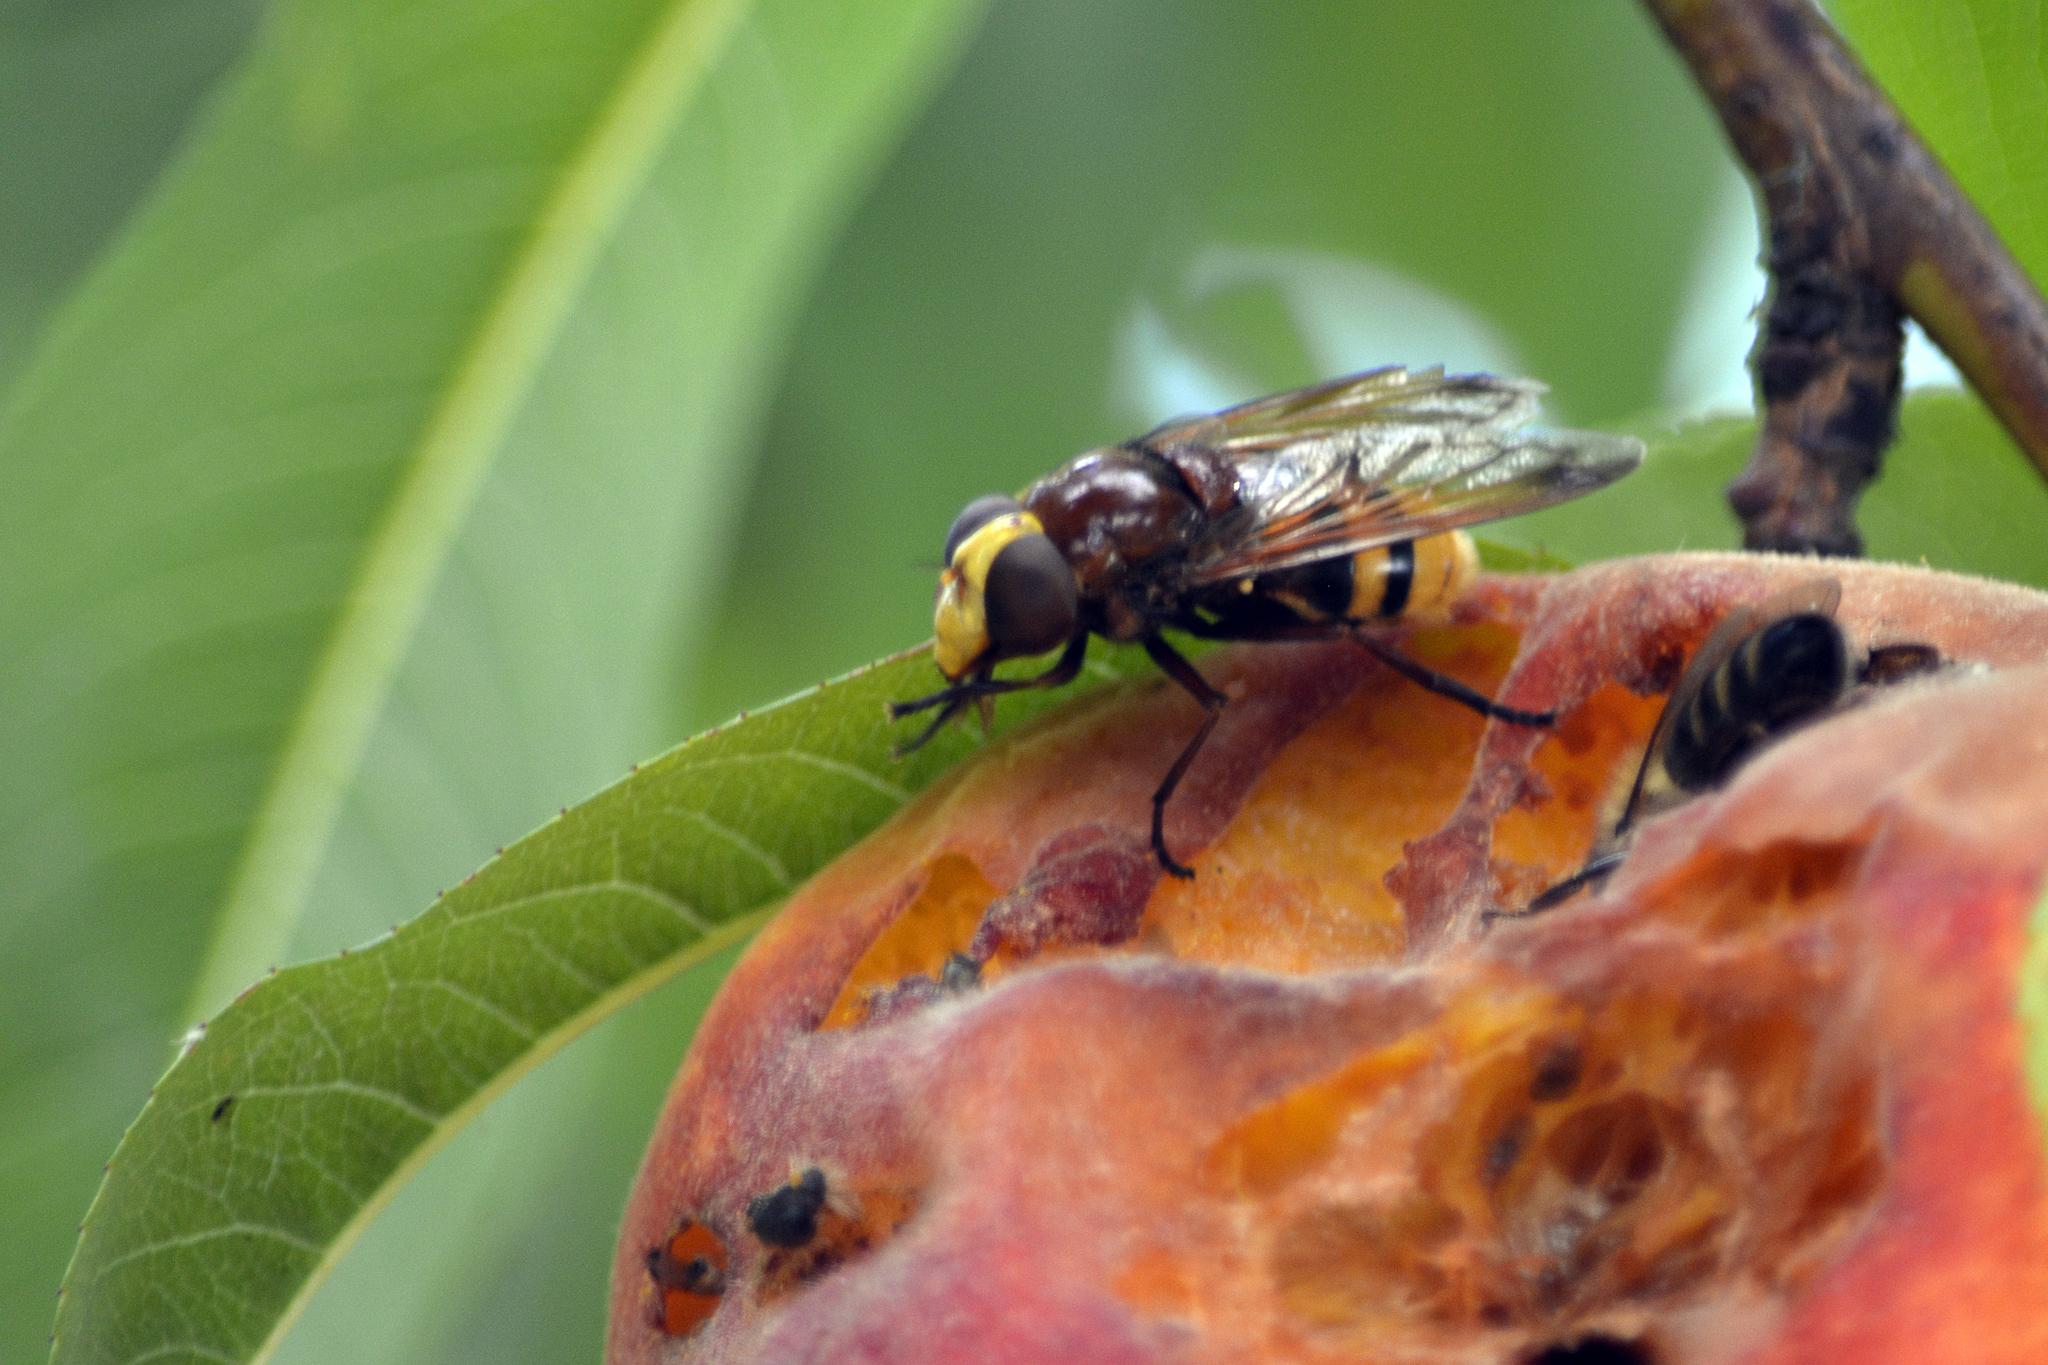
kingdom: Animalia
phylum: Arthropoda
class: Insecta
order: Diptera
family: Syrphidae
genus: Volucella
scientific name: Volucella zonaria
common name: Hornet hoverfly
